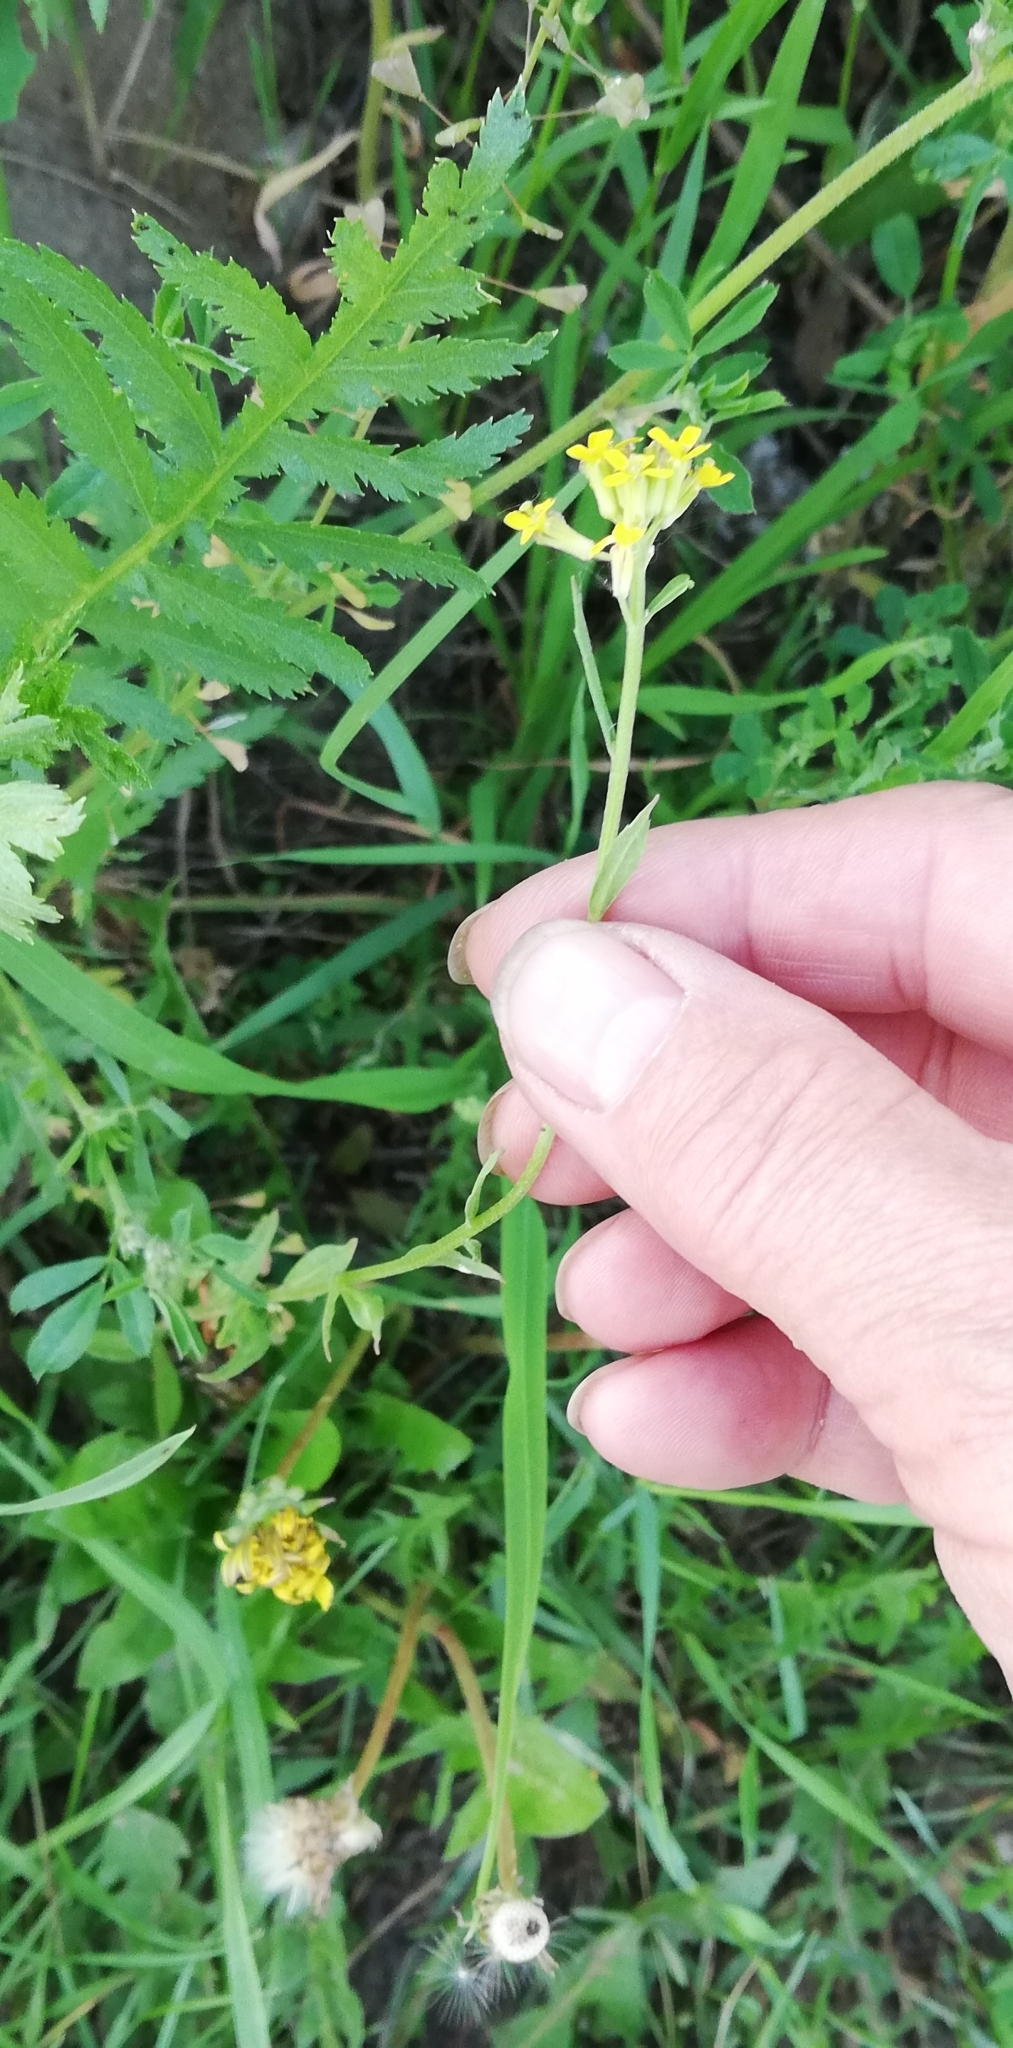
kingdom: Plantae
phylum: Tracheophyta
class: Magnoliopsida
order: Brassicales
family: Brassicaceae
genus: Erysimum
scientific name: Erysimum cheiranthoides
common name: Treacle mustard
